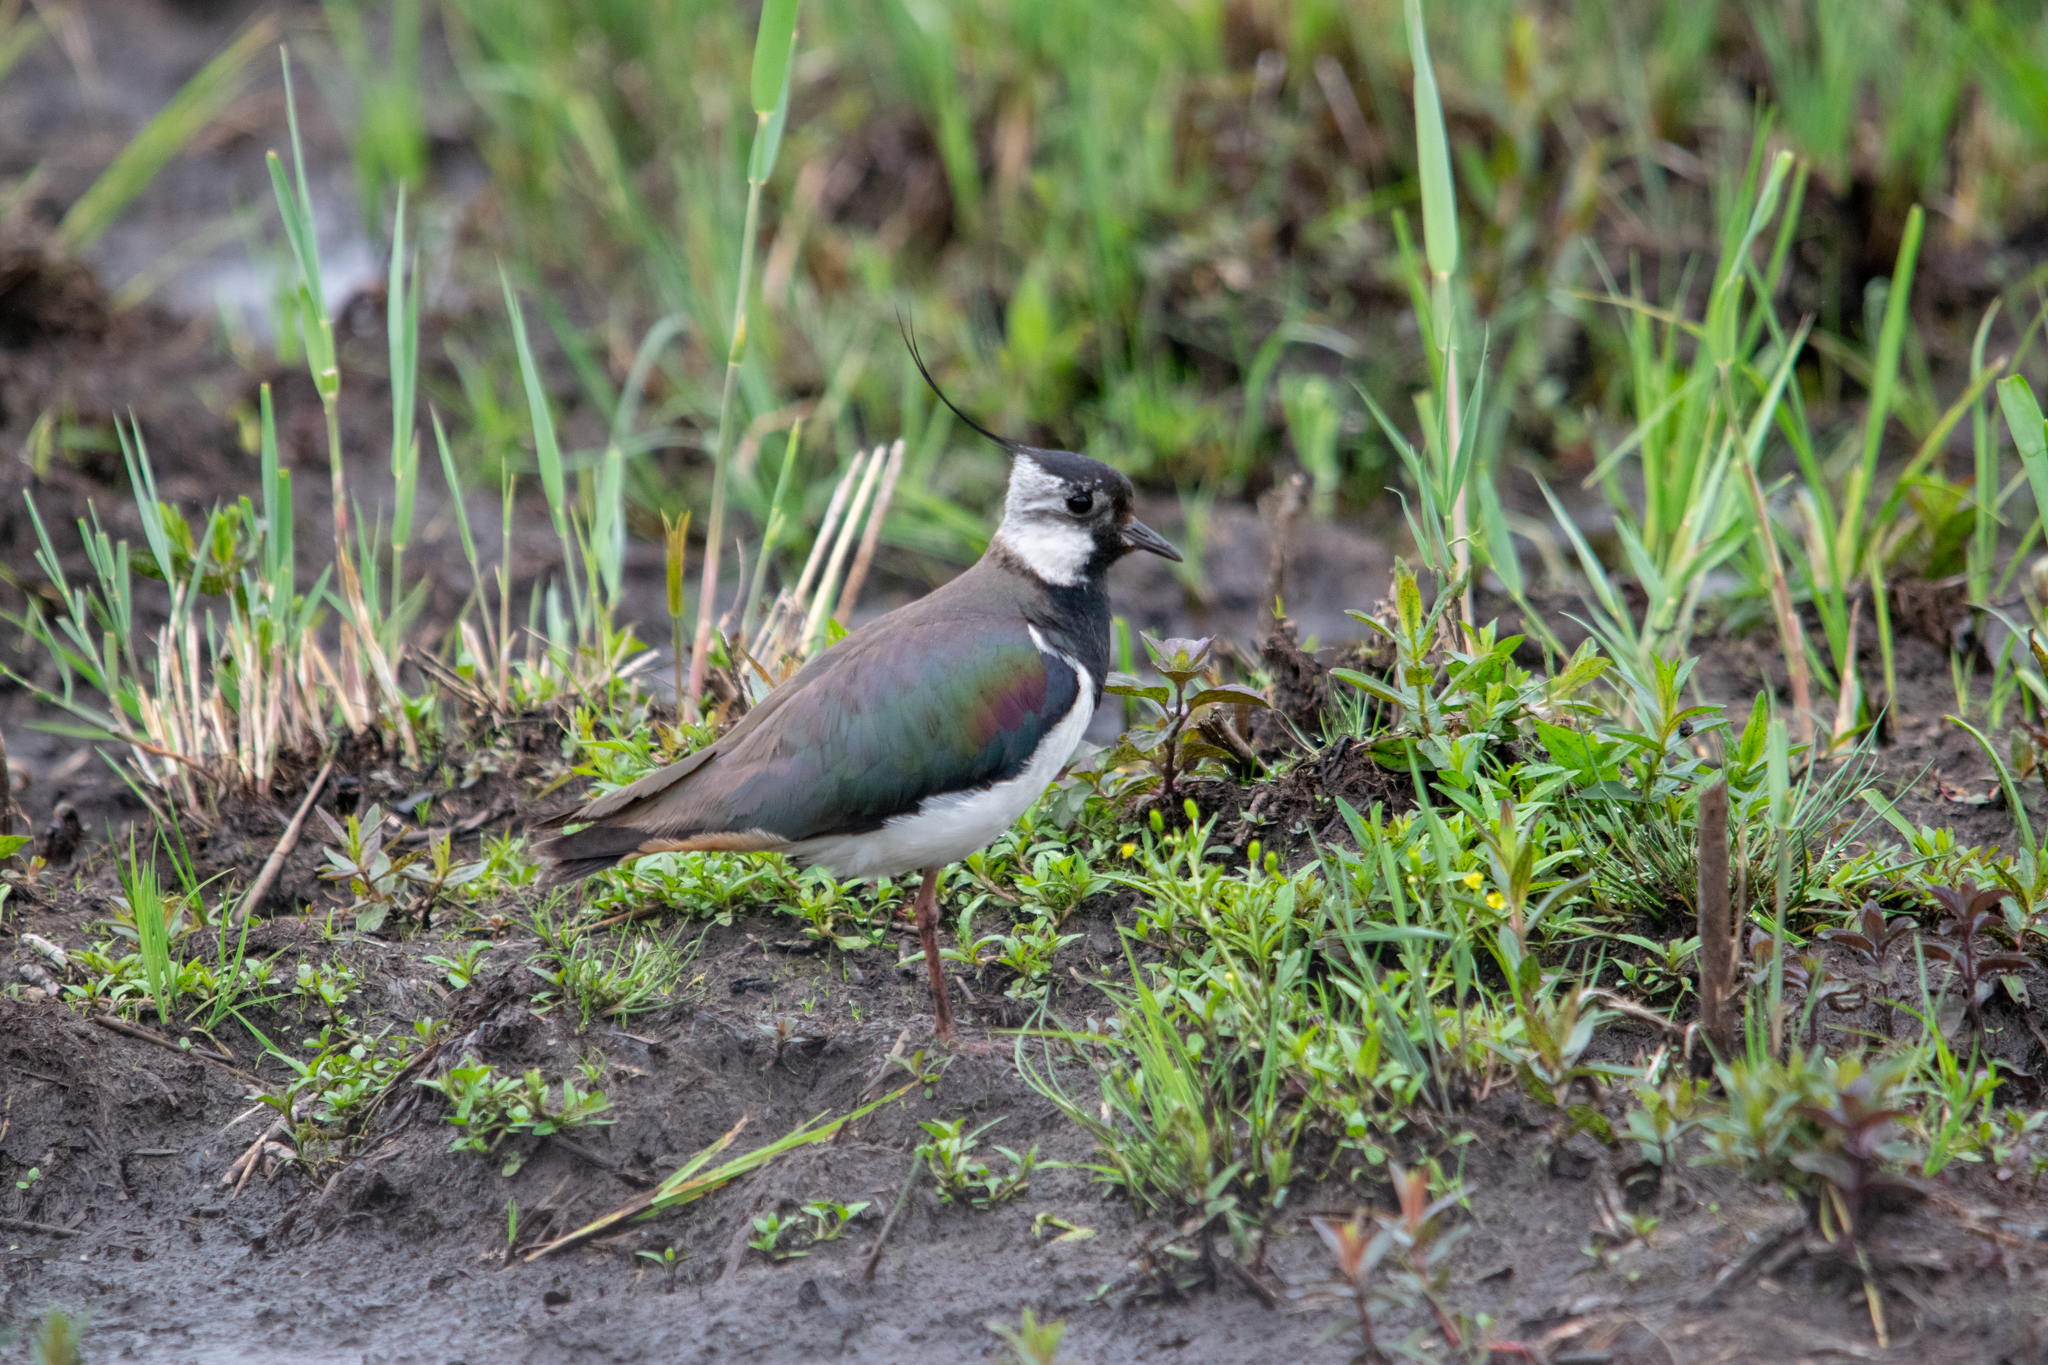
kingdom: Animalia
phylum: Chordata
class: Aves
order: Charadriiformes
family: Charadriidae
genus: Vanellus
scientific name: Vanellus vanellus
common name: Northern lapwing
